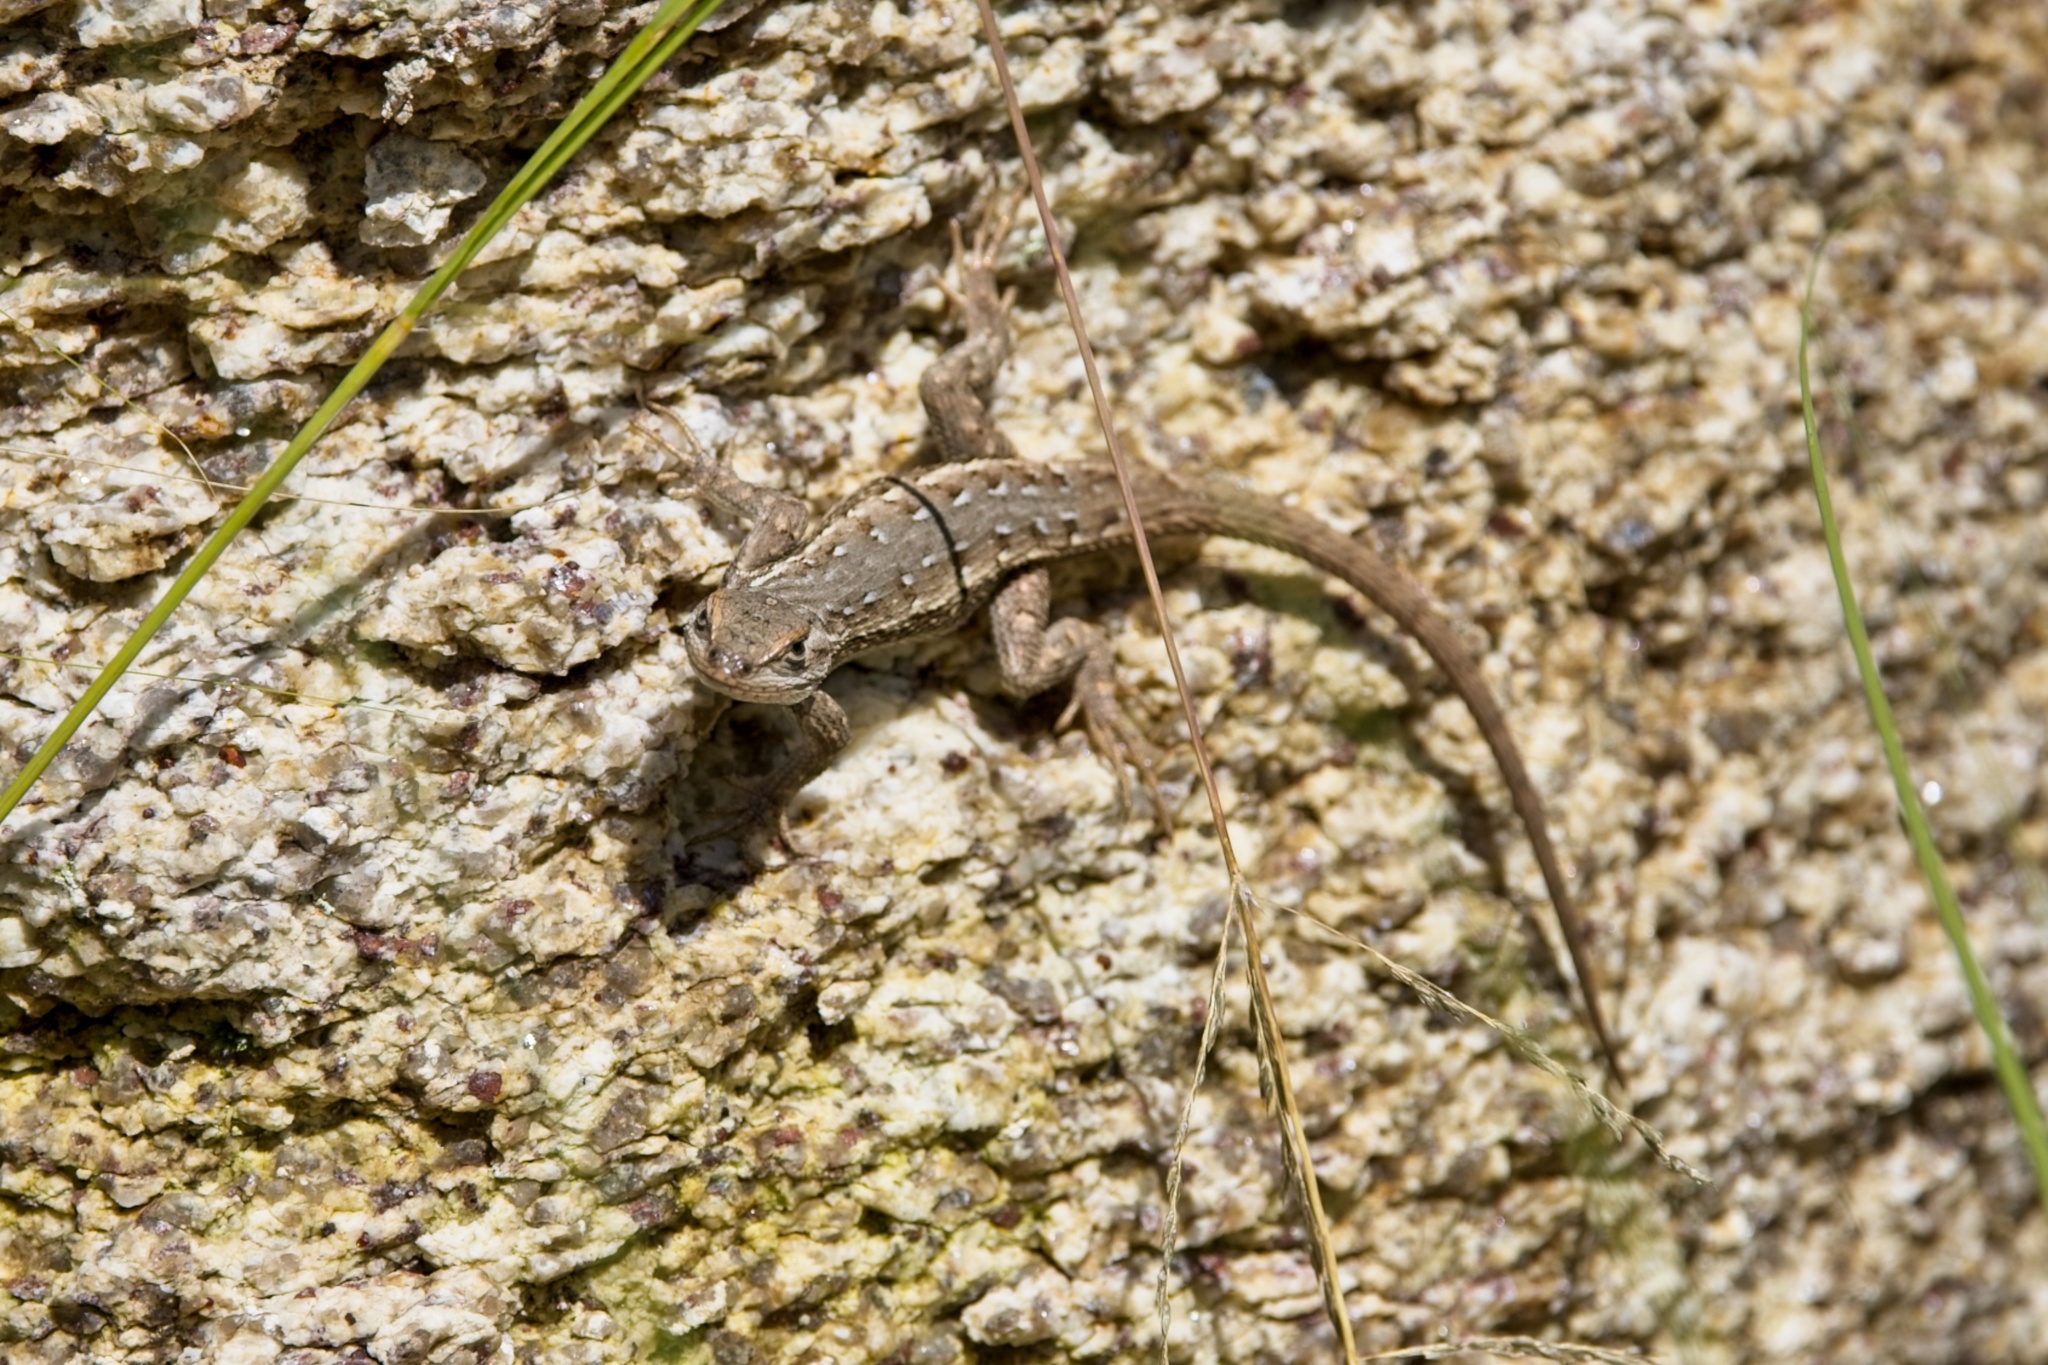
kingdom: Animalia
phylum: Chordata
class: Squamata
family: Phrynosomatidae
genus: Sceloporus
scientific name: Sceloporus cowlesi
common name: White sands prairie lizard
